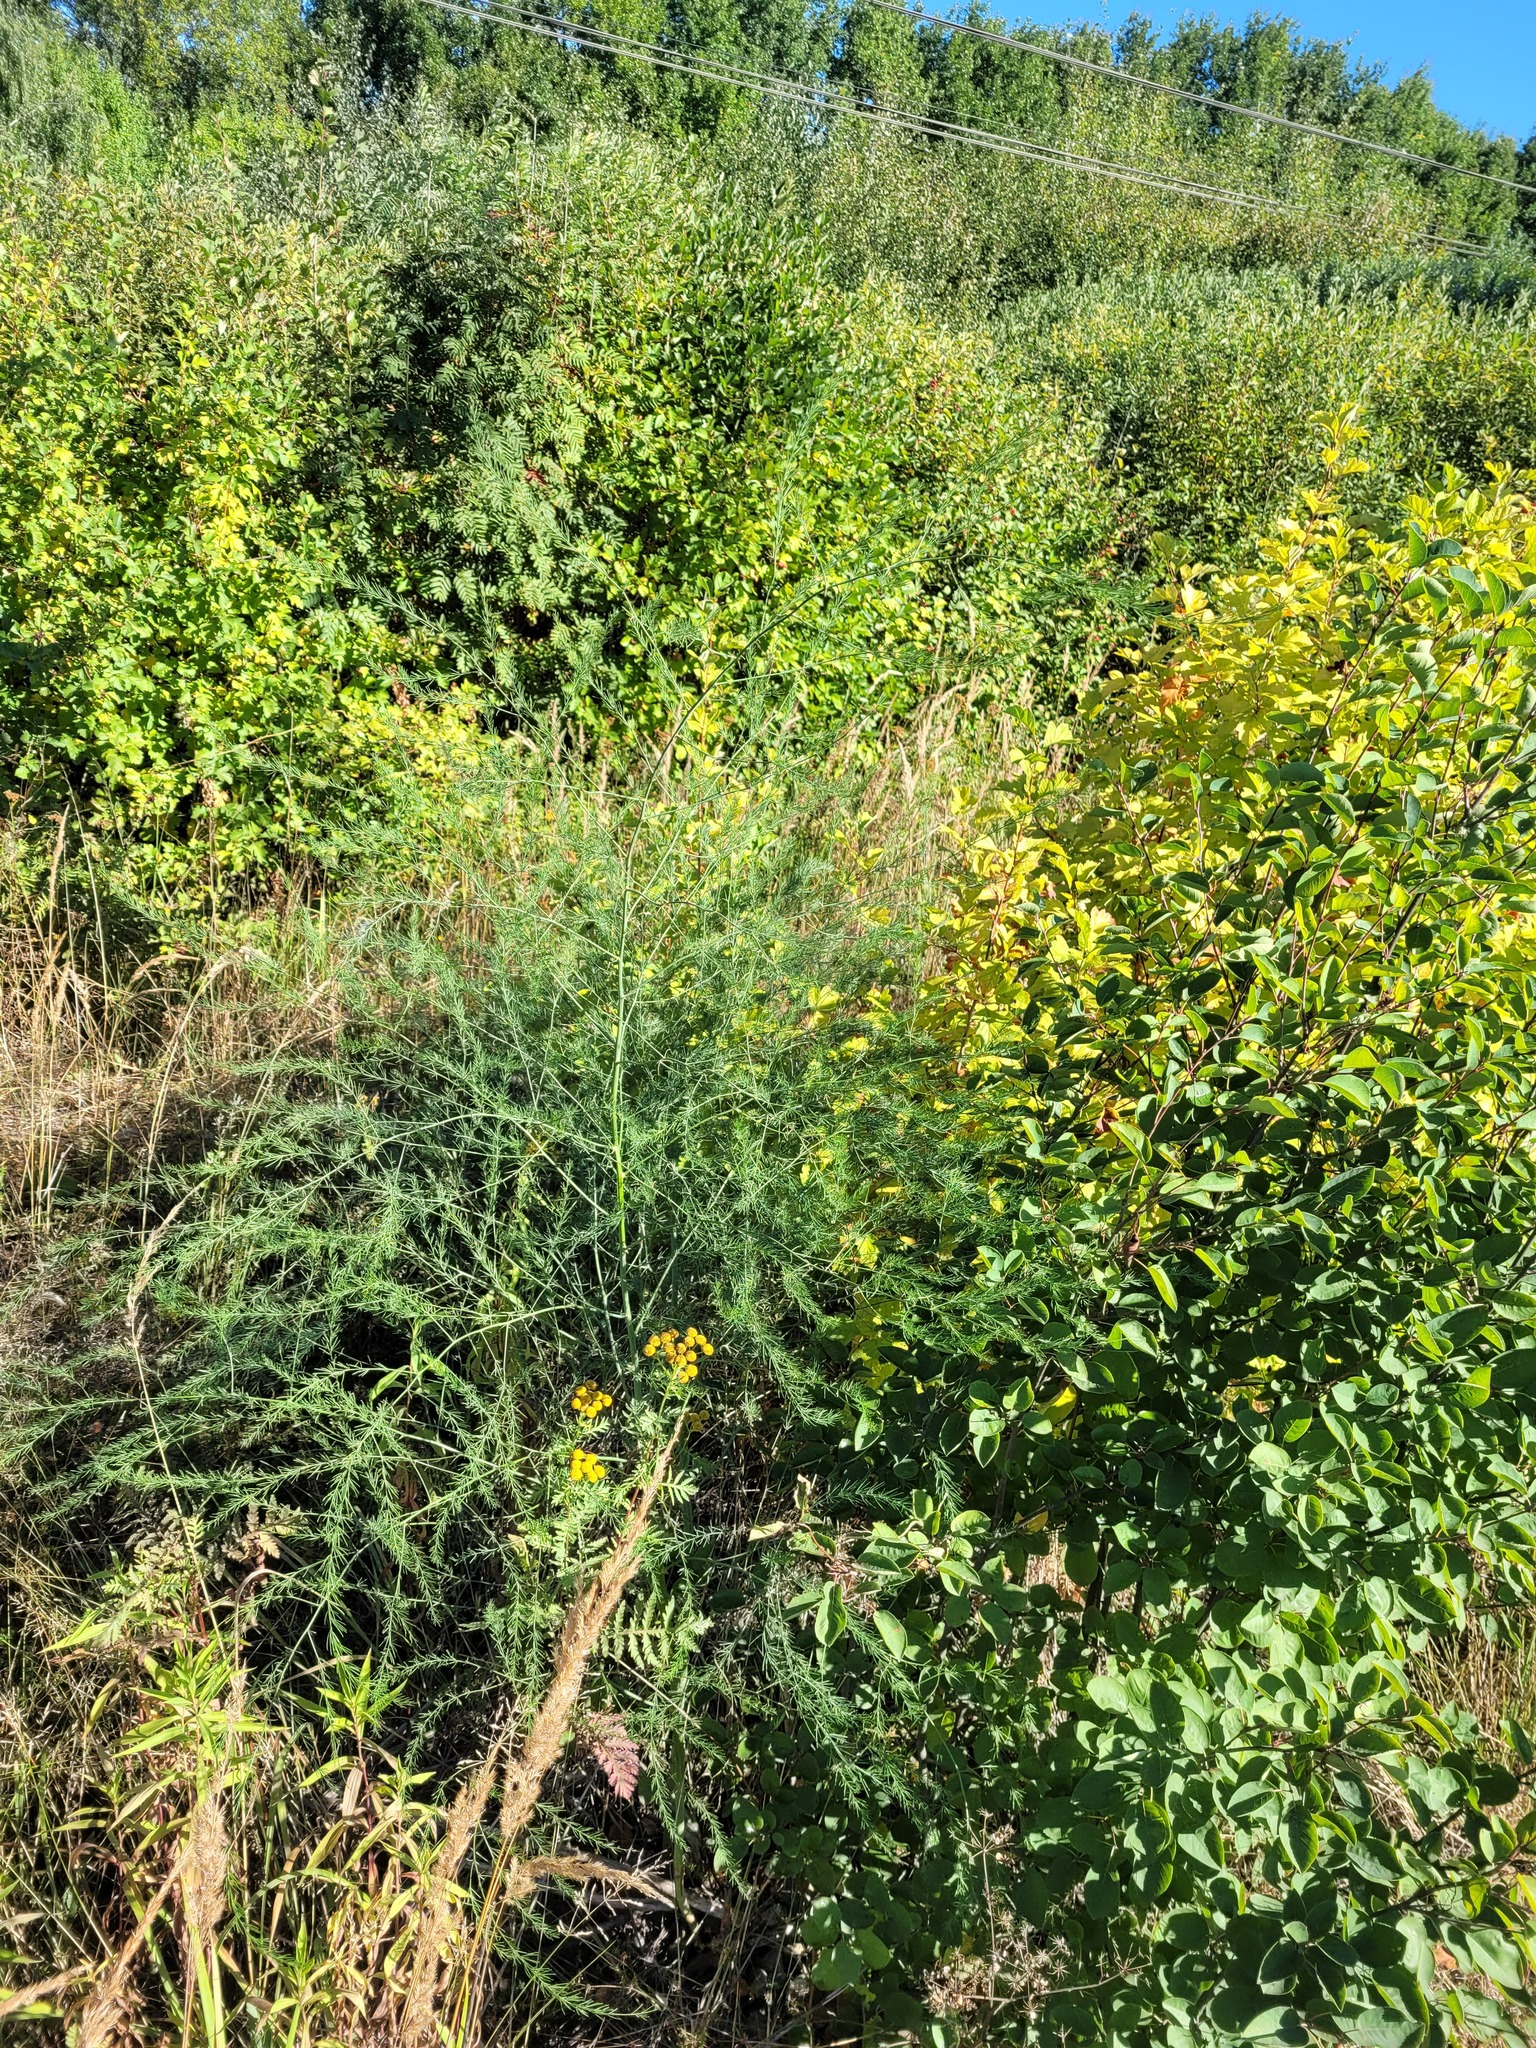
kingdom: Plantae
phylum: Tracheophyta
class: Liliopsida
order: Asparagales
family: Asparagaceae
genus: Asparagus
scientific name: Asparagus officinalis
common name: Garden asparagus
